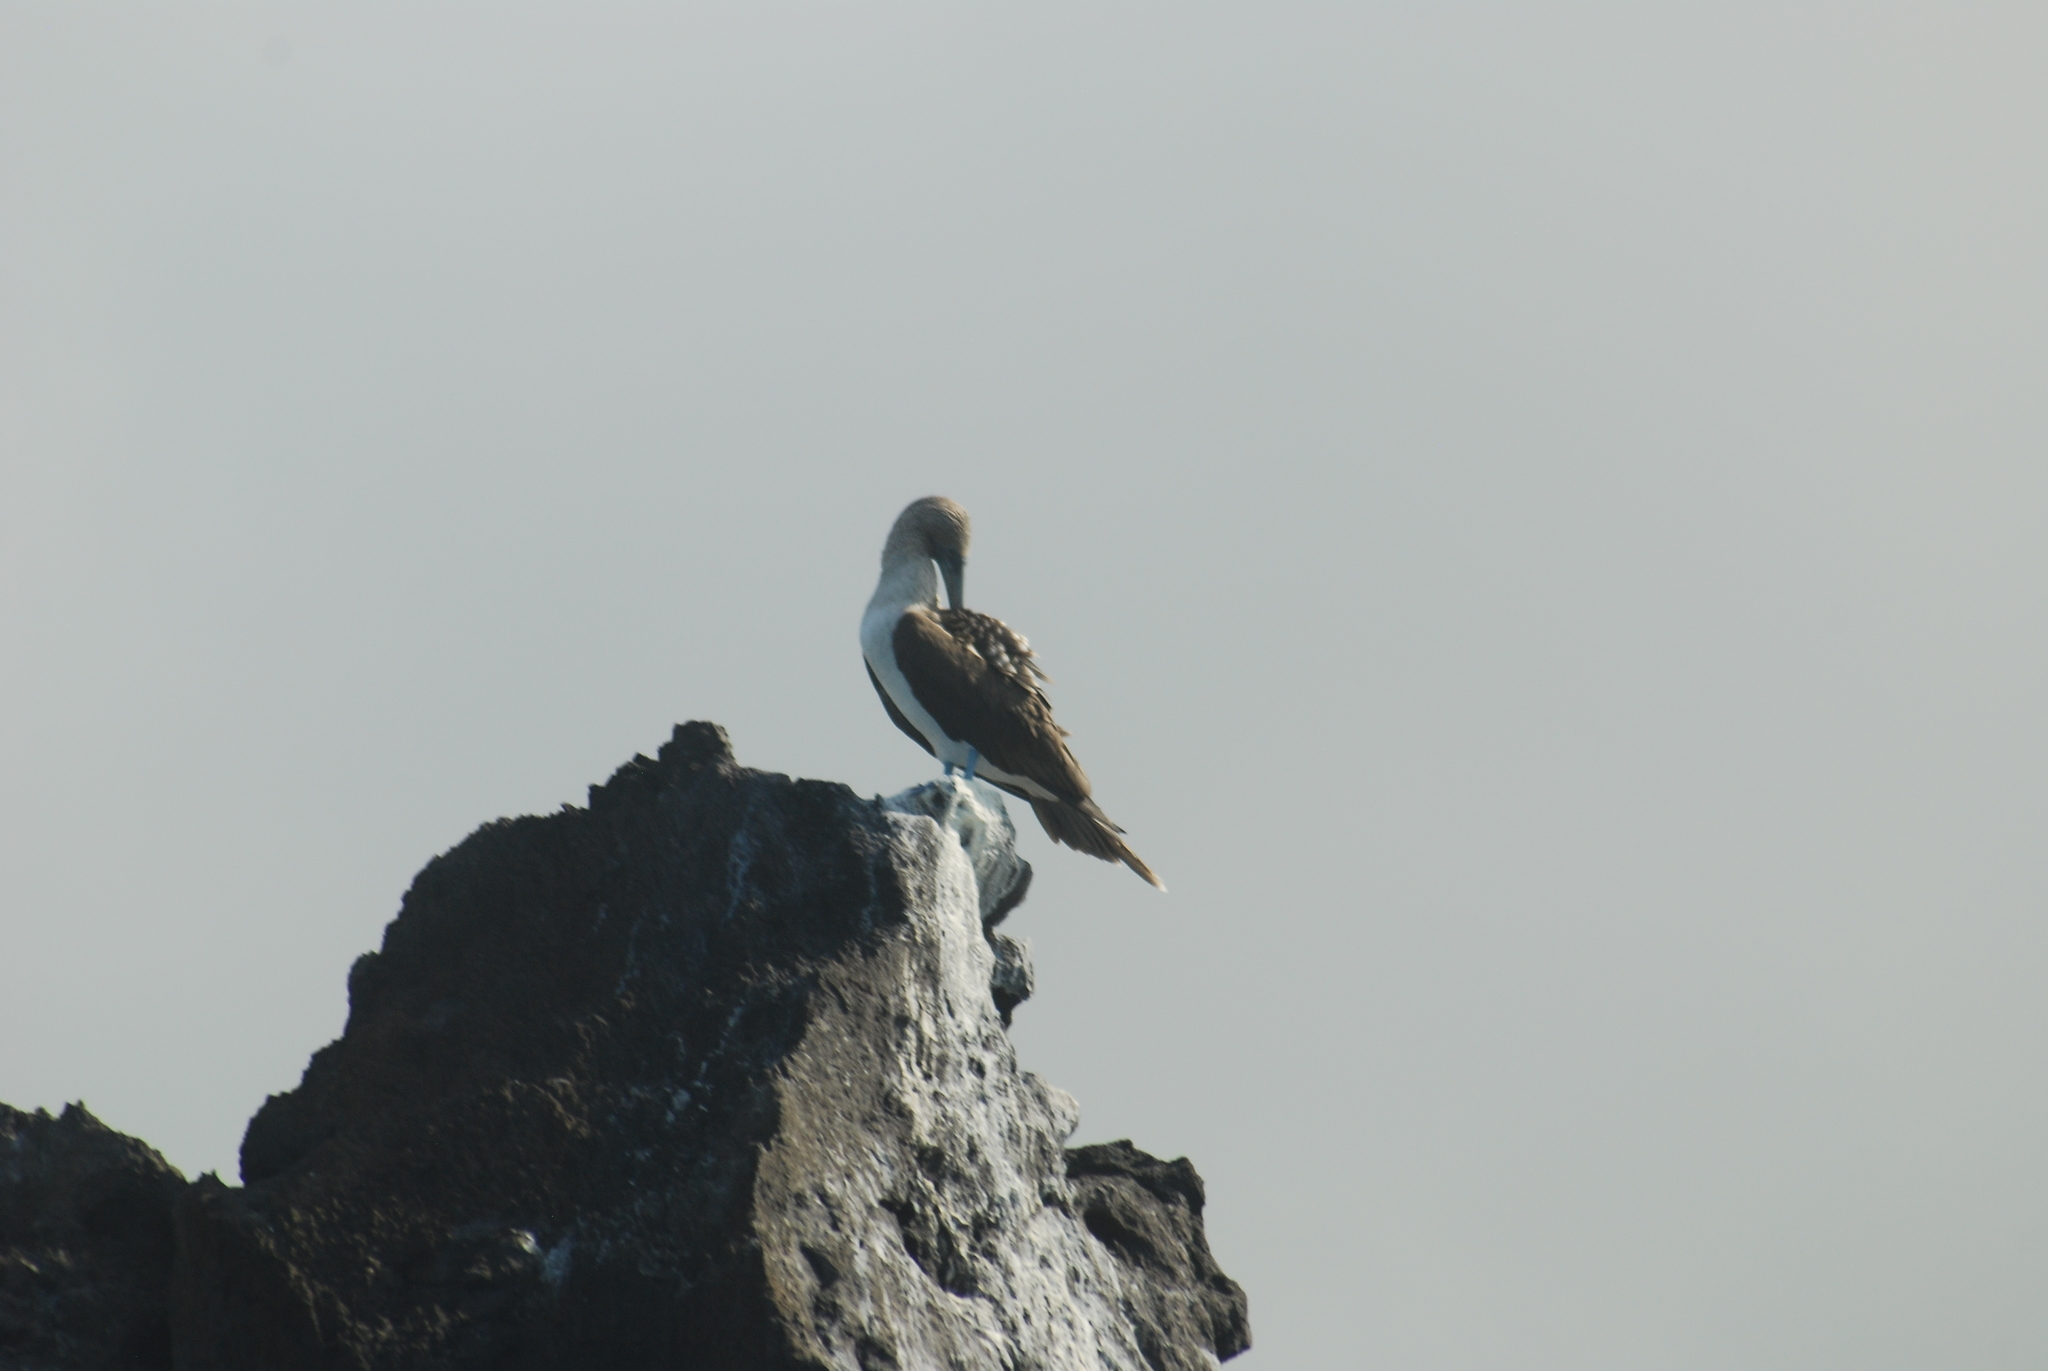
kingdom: Animalia
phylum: Chordata
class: Aves
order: Suliformes
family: Sulidae
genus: Sula
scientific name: Sula nebouxii
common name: Blue-footed booby
